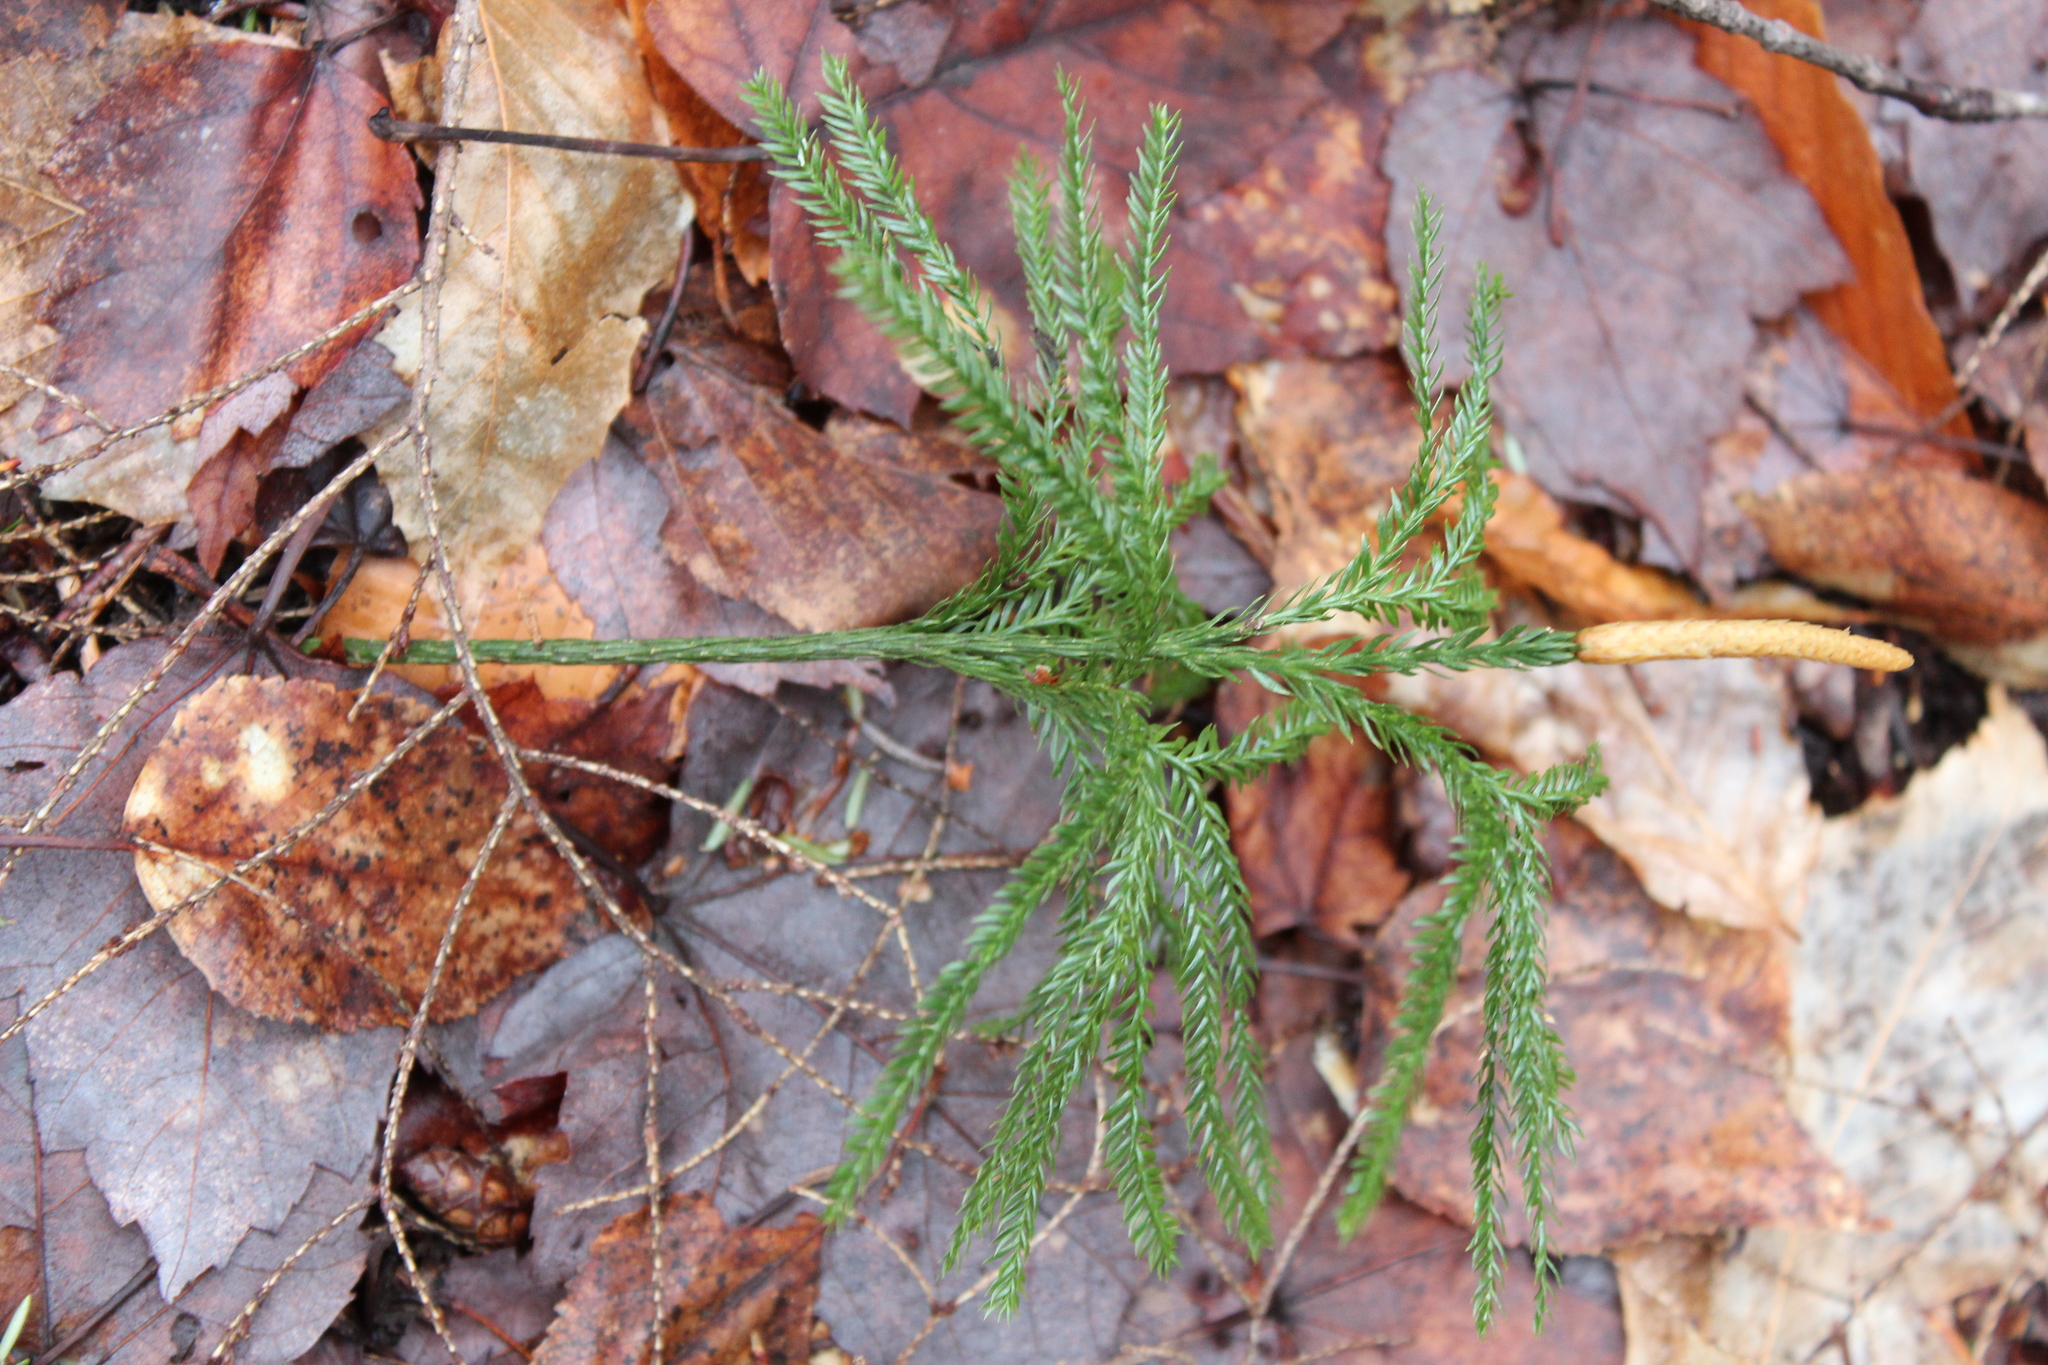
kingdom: Plantae
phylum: Tracheophyta
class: Lycopodiopsida
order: Lycopodiales
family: Lycopodiaceae
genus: Dendrolycopodium
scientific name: Dendrolycopodium obscurum
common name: Common ground-pine
